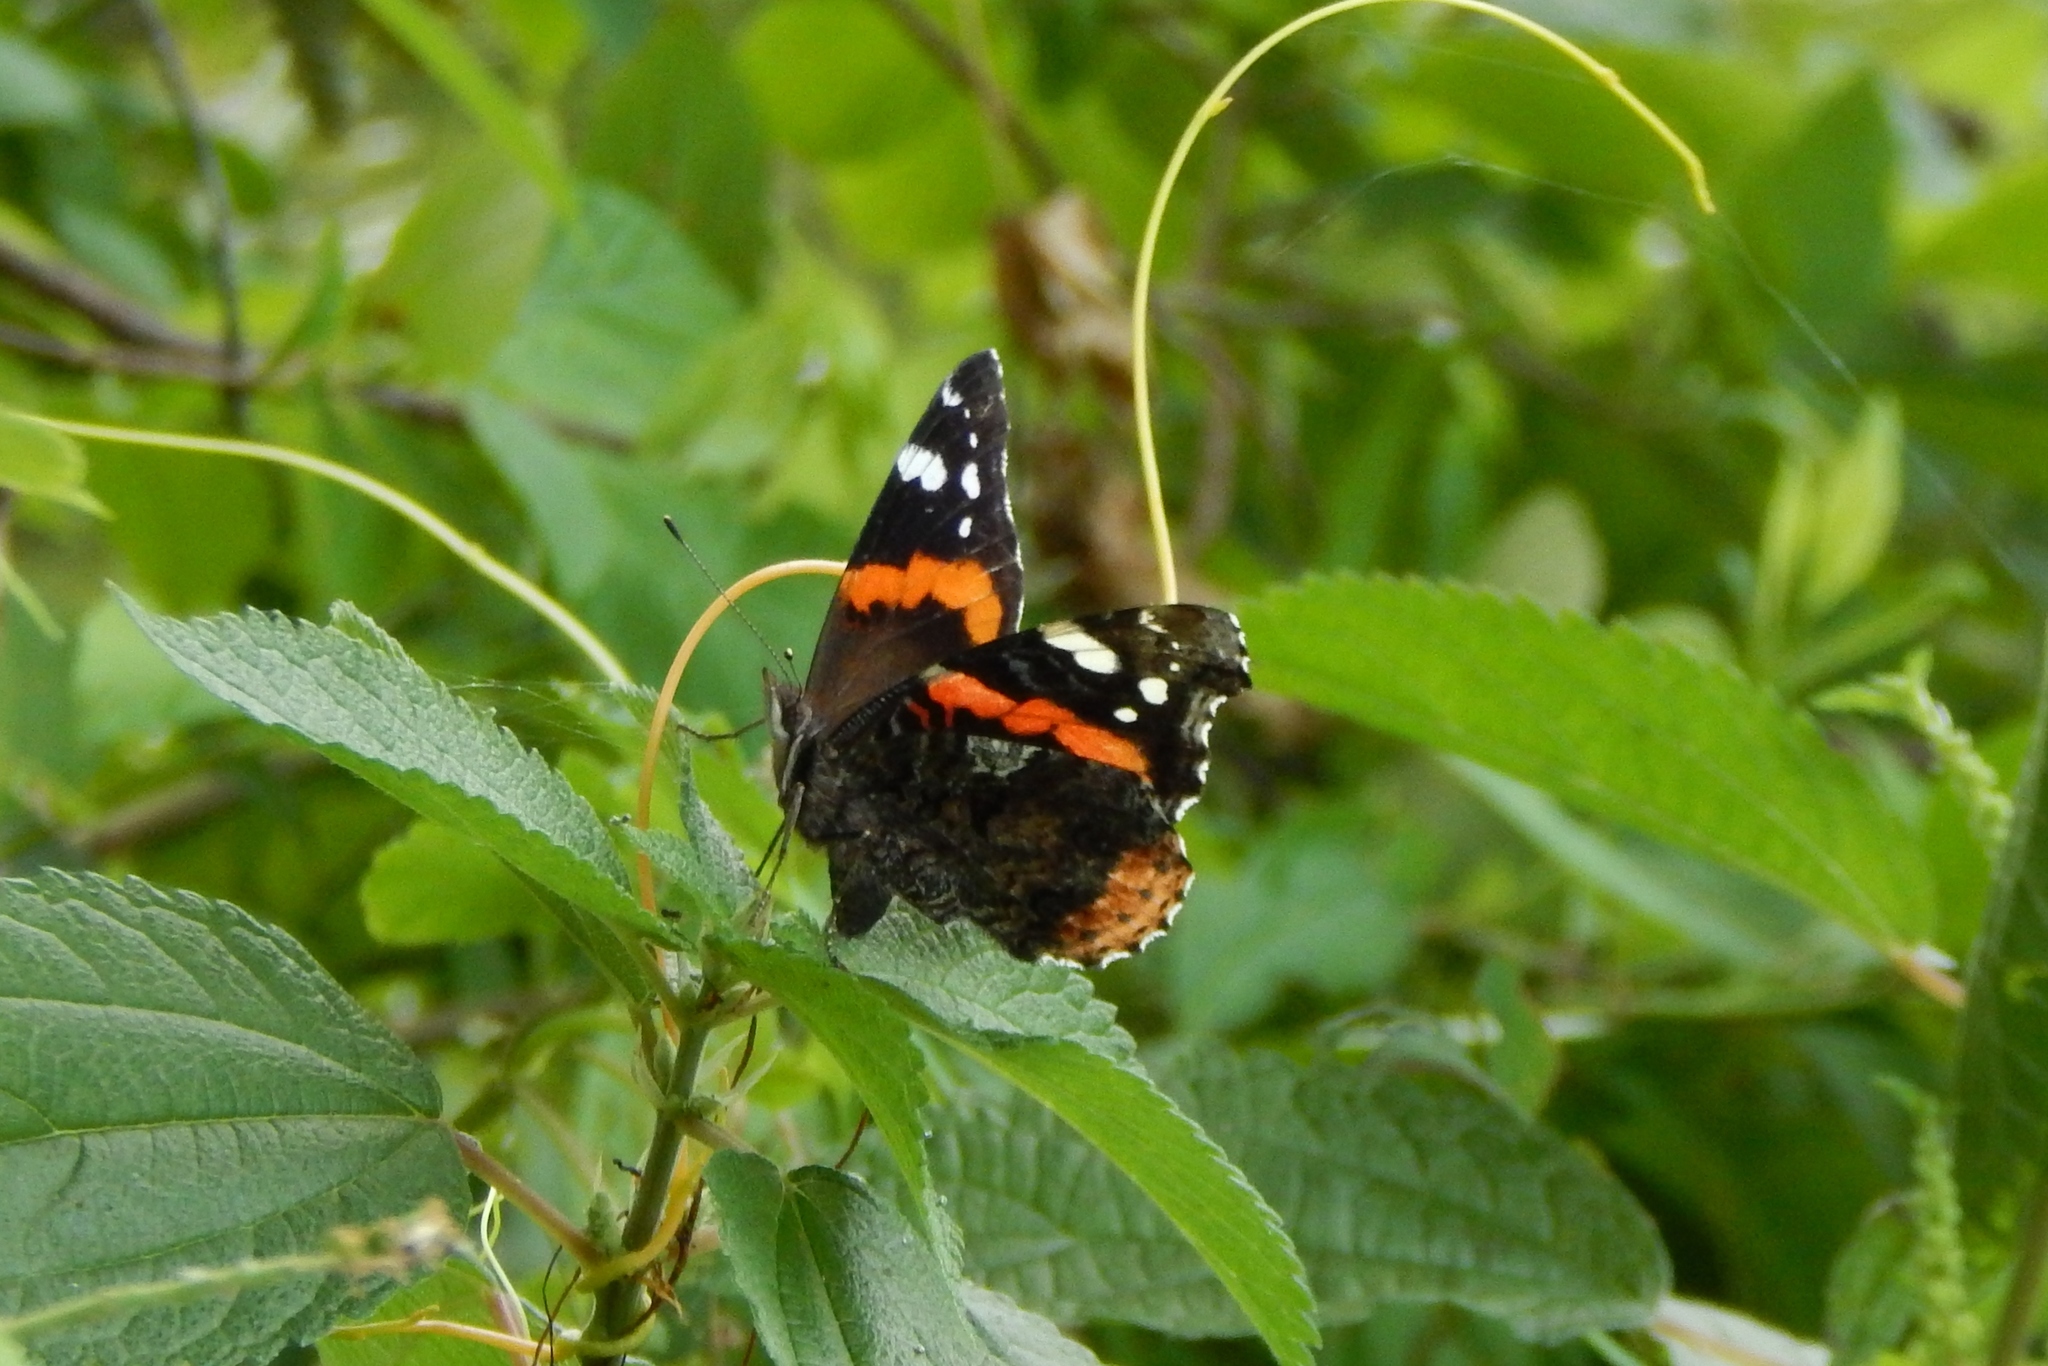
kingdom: Animalia
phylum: Arthropoda
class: Insecta
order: Lepidoptera
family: Nymphalidae
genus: Vanessa
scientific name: Vanessa atalanta
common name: Red admiral
